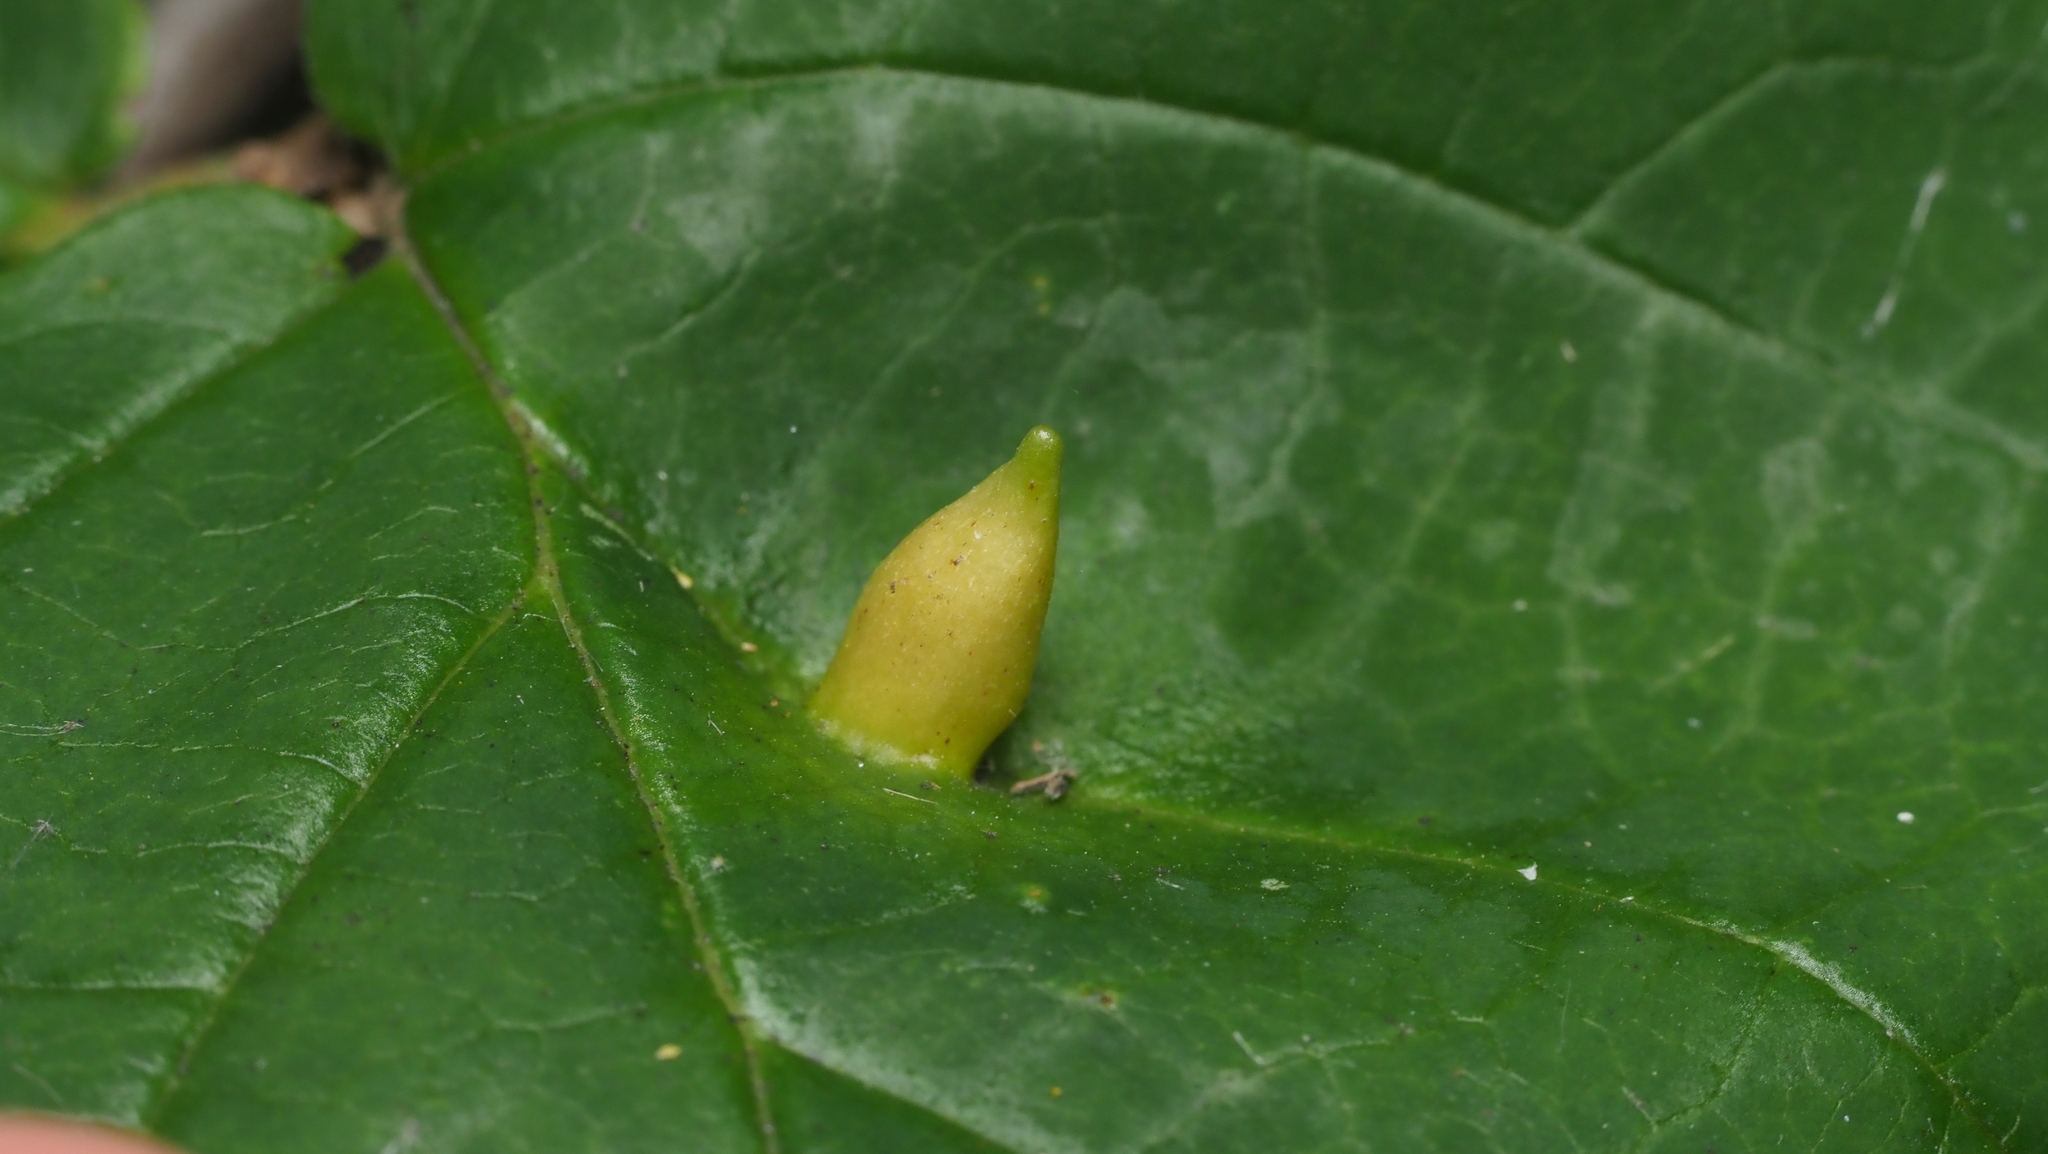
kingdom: Animalia
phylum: Arthropoda
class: Insecta
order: Hemiptera
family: Aphididae
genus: Hormaphis
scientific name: Hormaphis hamamelidis
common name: Witch-hazel cone gall aphid
